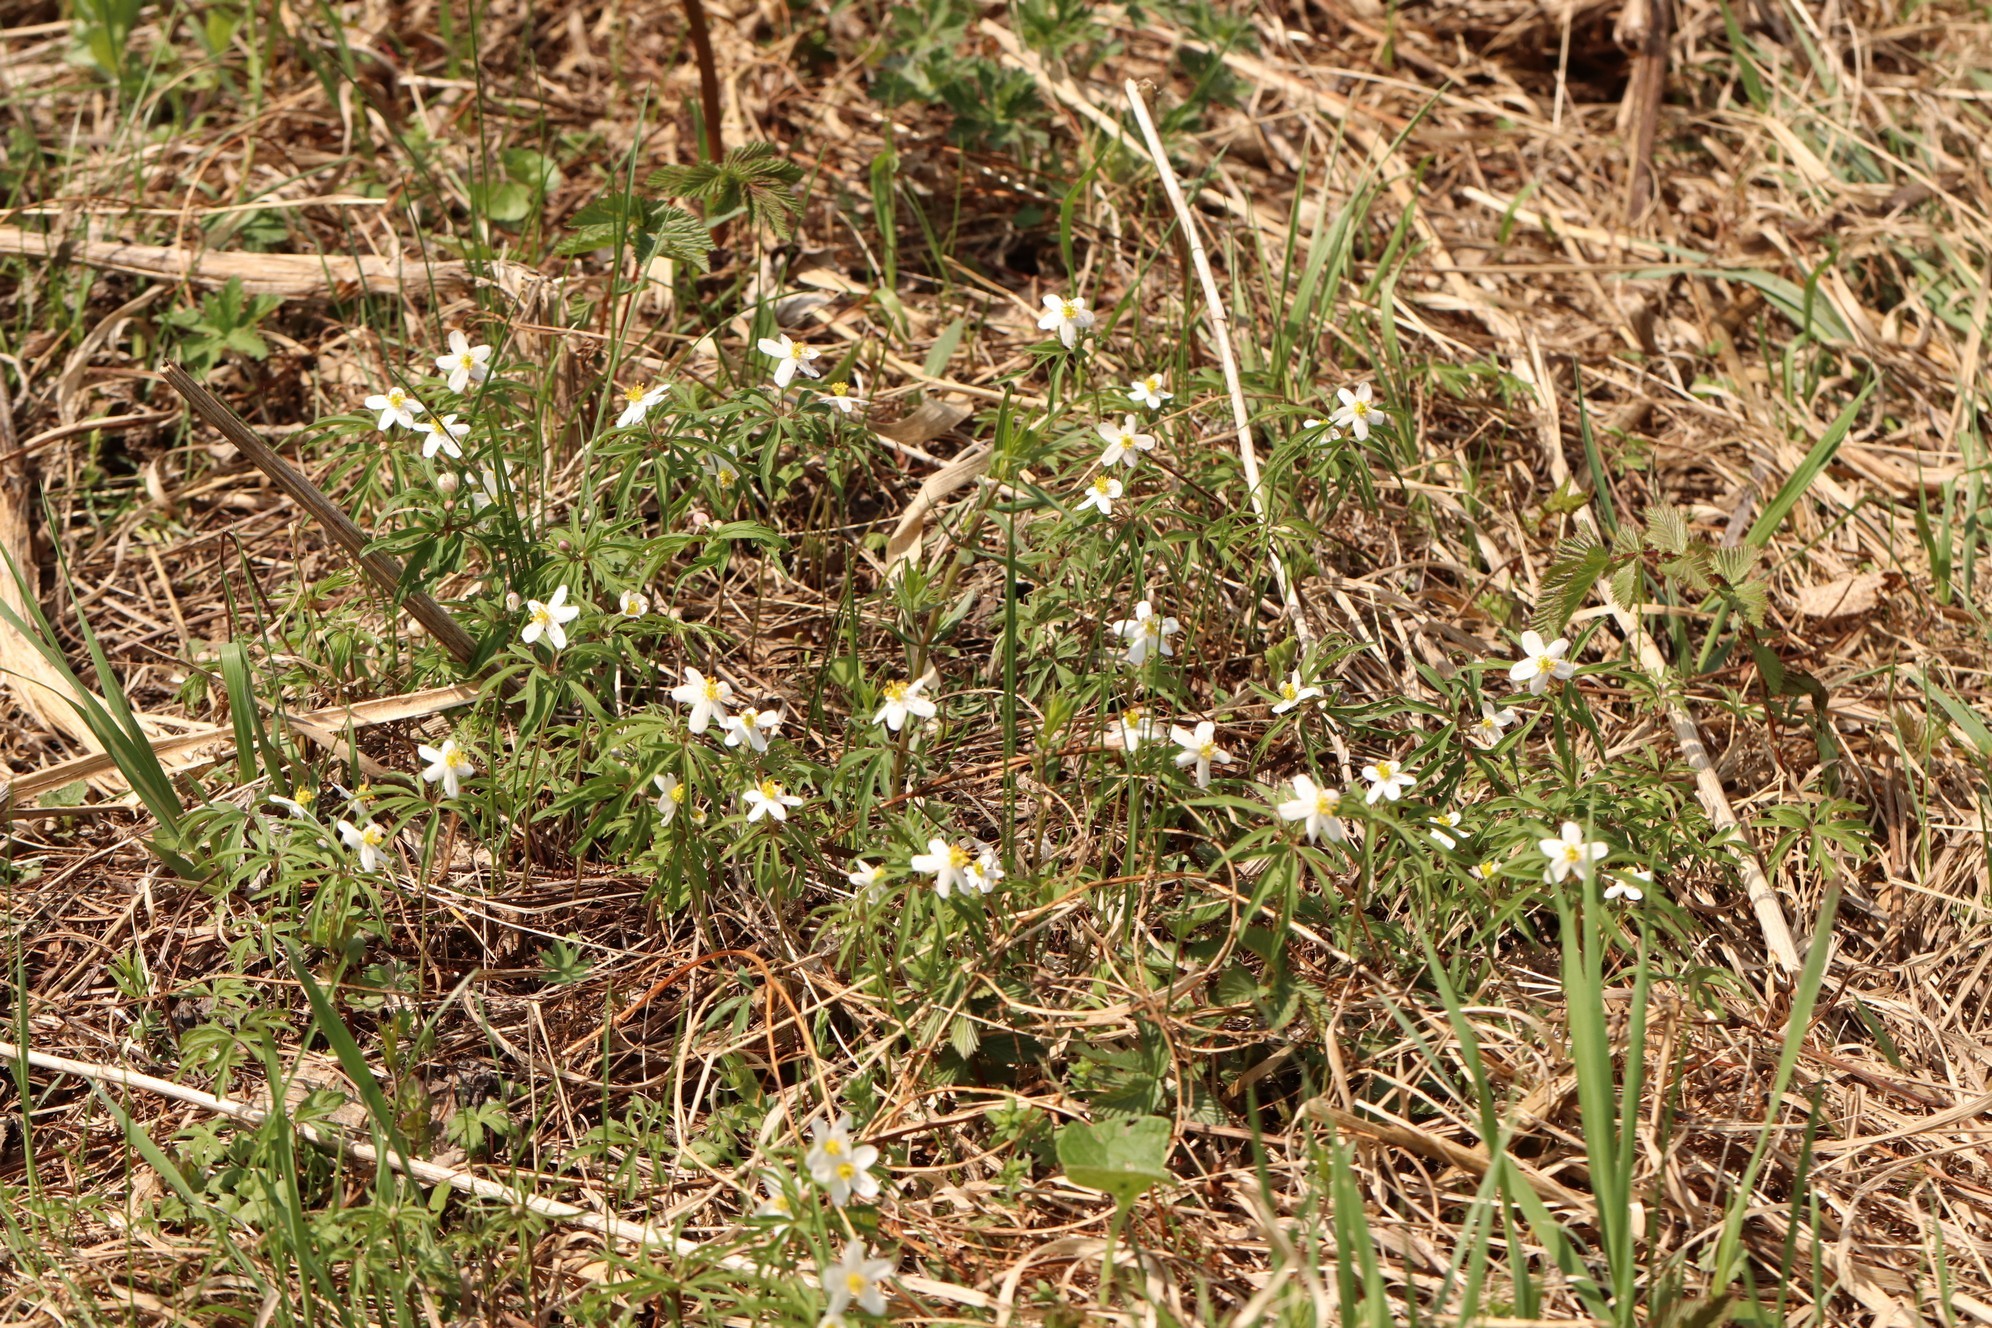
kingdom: Plantae
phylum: Tracheophyta
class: Magnoliopsida
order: Ranunculales
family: Ranunculaceae
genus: Anemone
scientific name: Anemone caerulea
